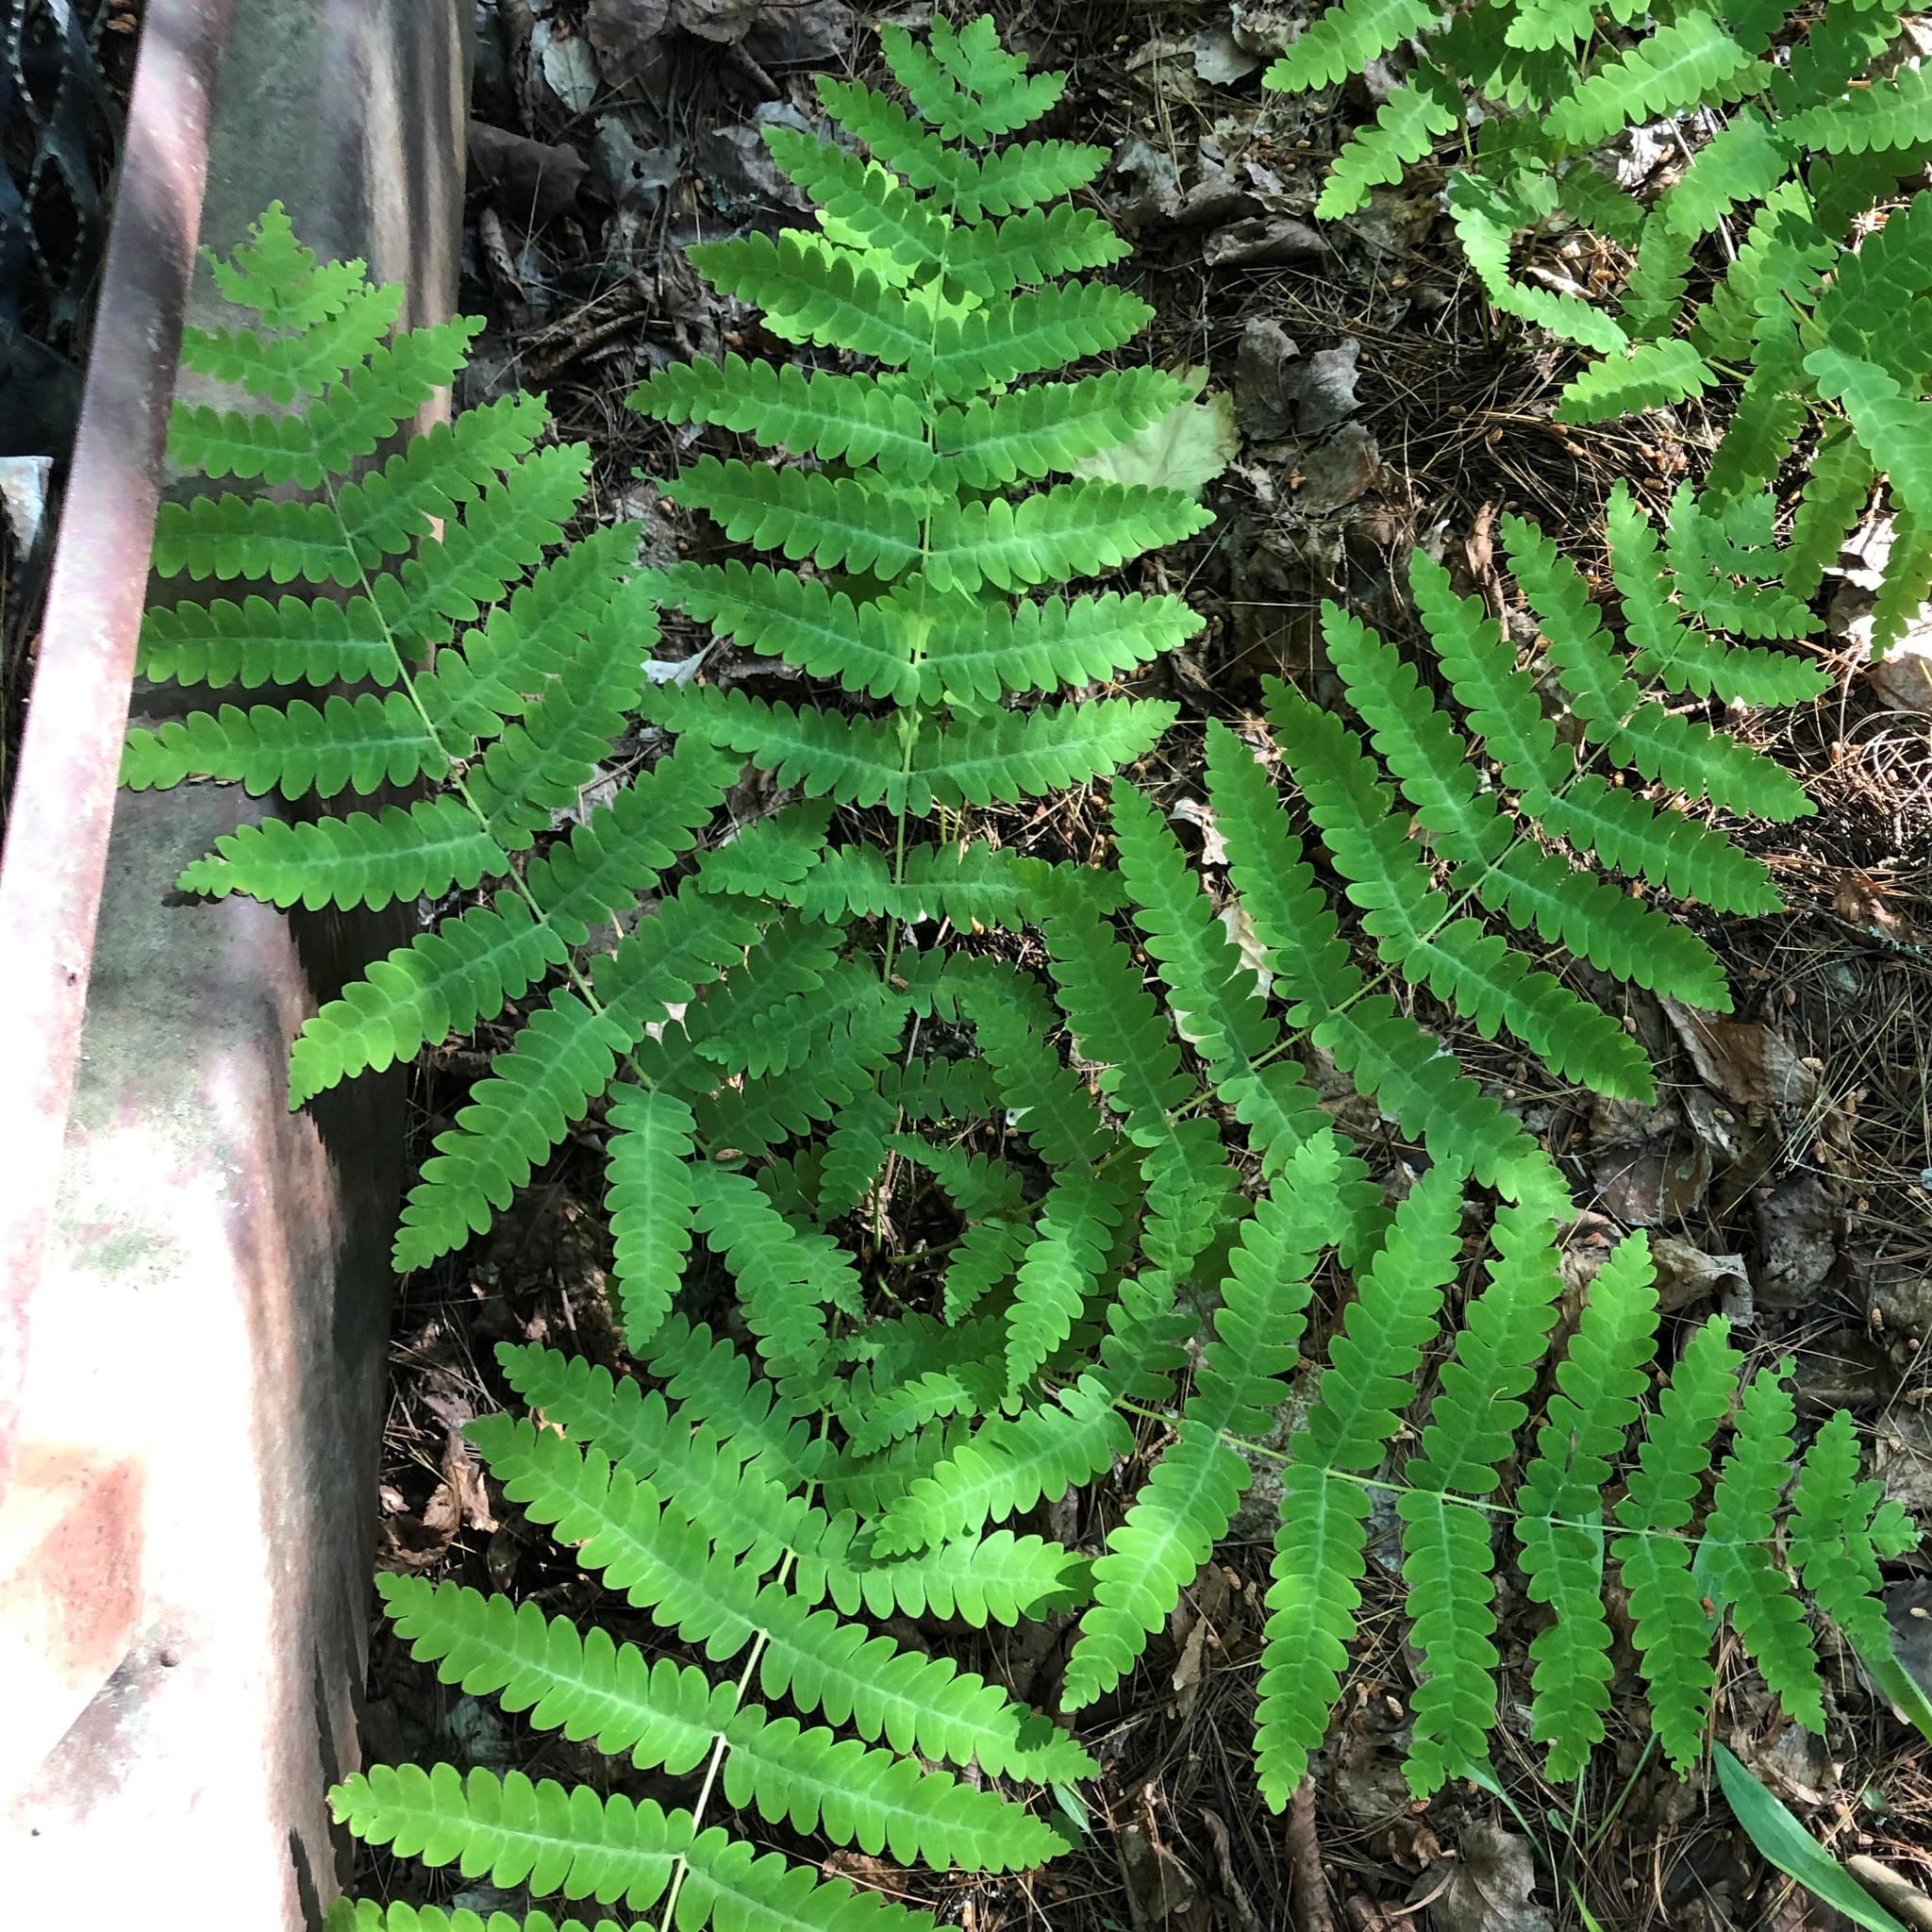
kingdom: Plantae
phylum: Tracheophyta
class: Polypodiopsida
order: Osmundales
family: Osmundaceae
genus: Claytosmunda
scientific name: Claytosmunda claytoniana
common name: Clayton's fern
